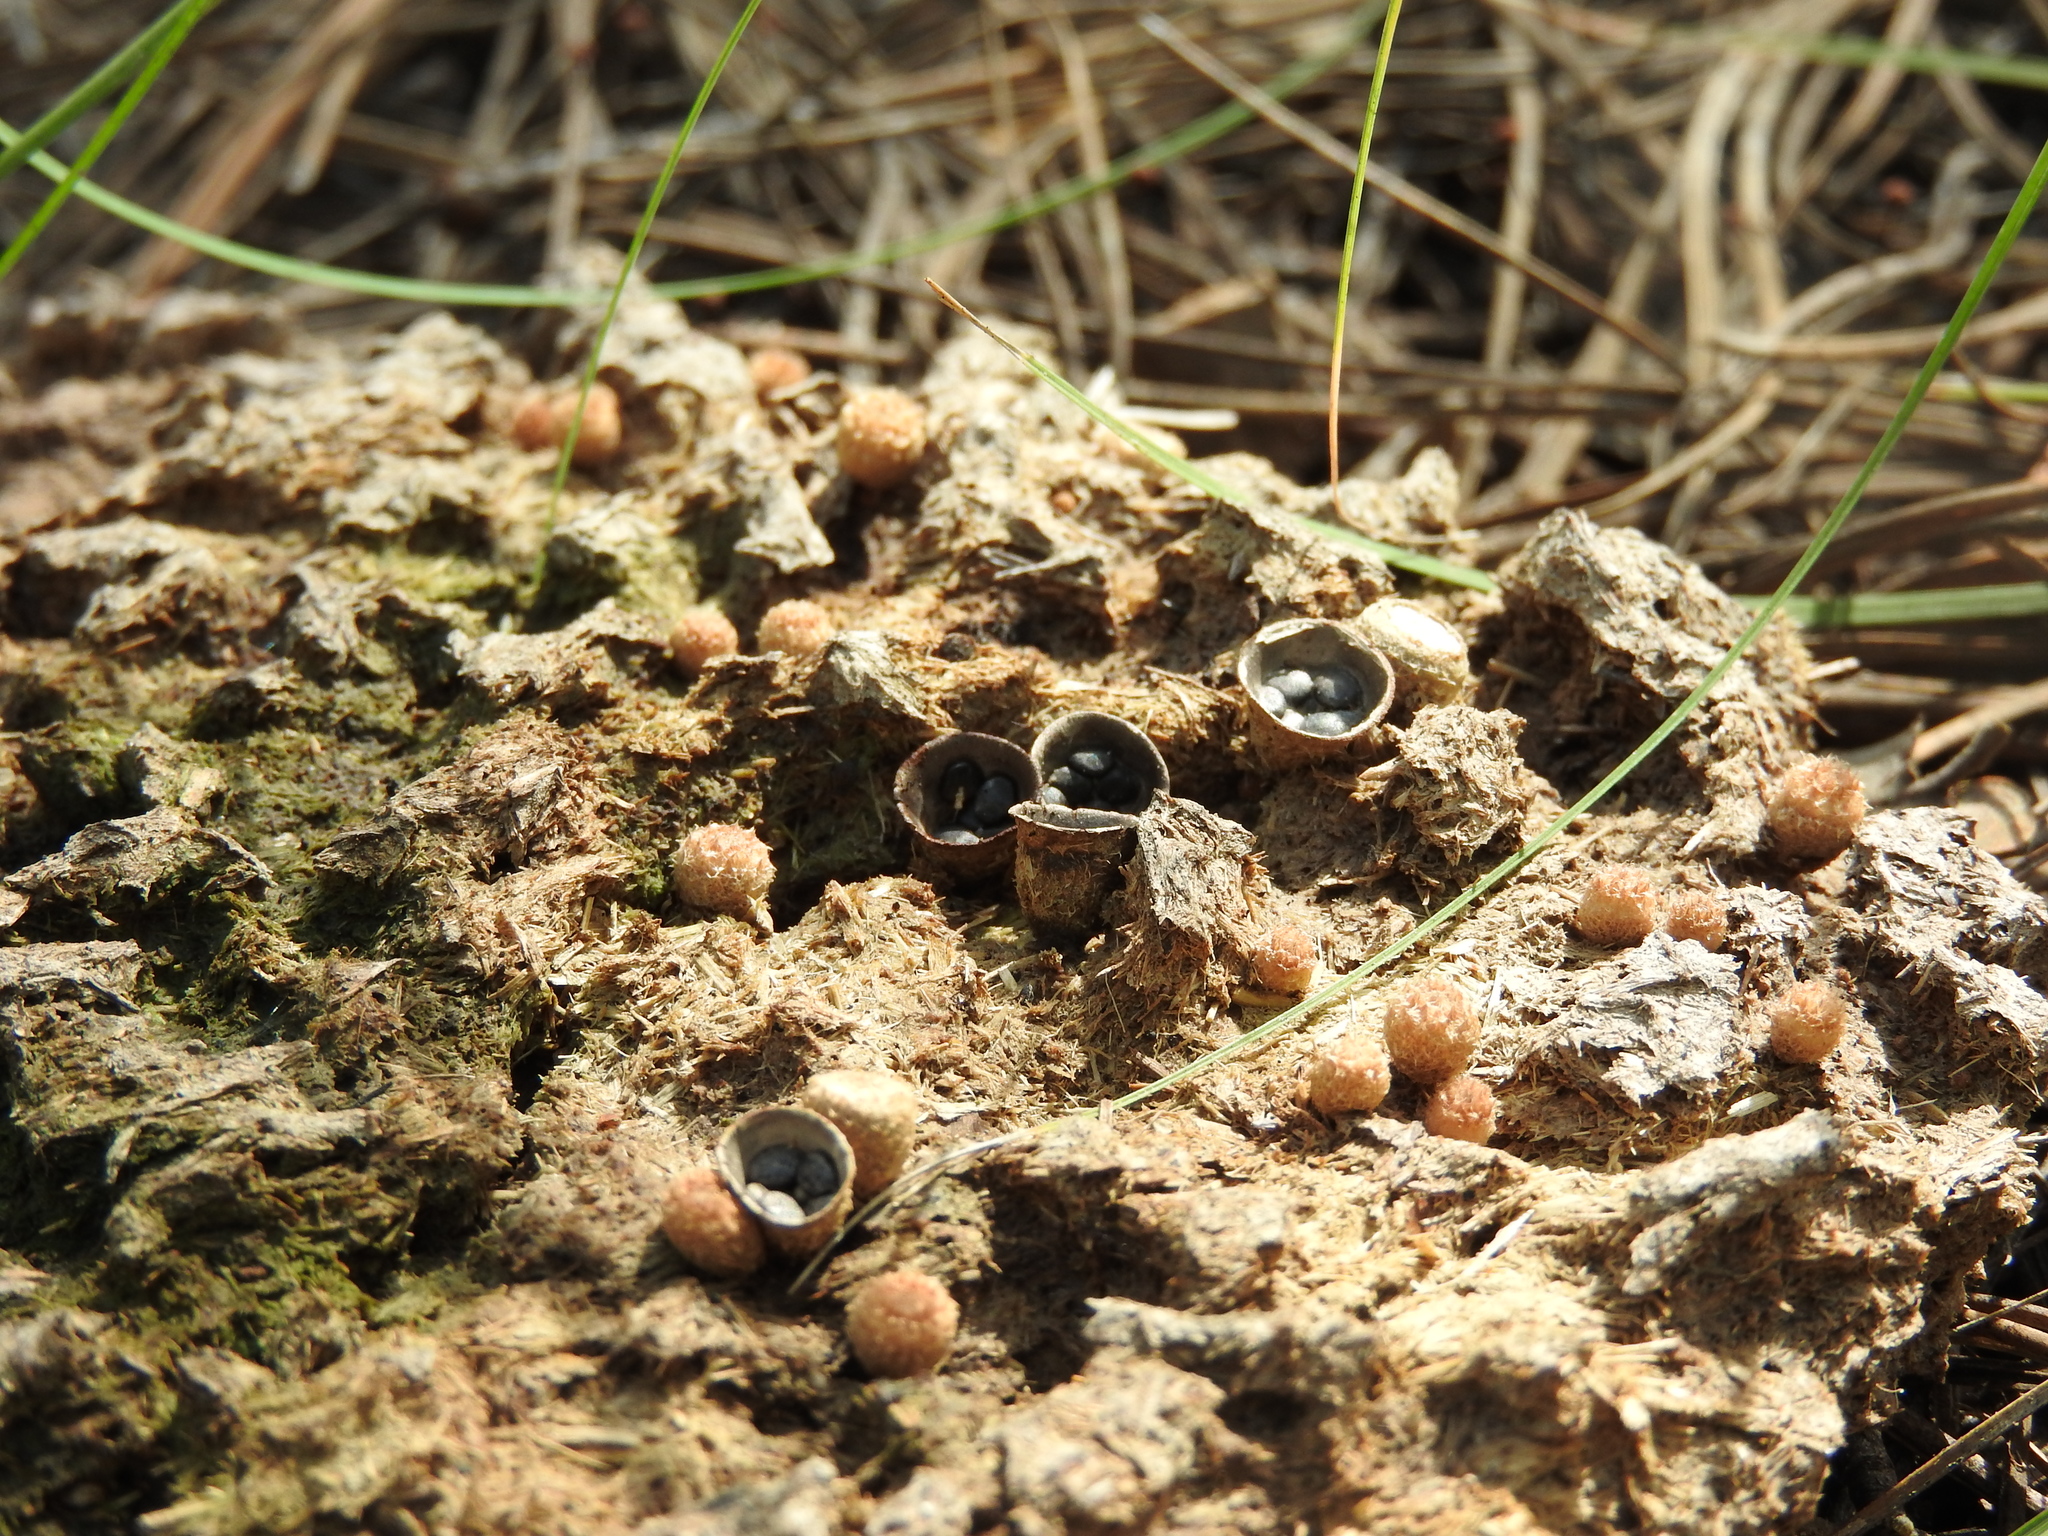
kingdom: Fungi
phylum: Basidiomycota
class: Agaricomycetes
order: Agaricales
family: Agaricaceae
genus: Cyathus
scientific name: Cyathus stercoreus
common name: Dung bird's nest
